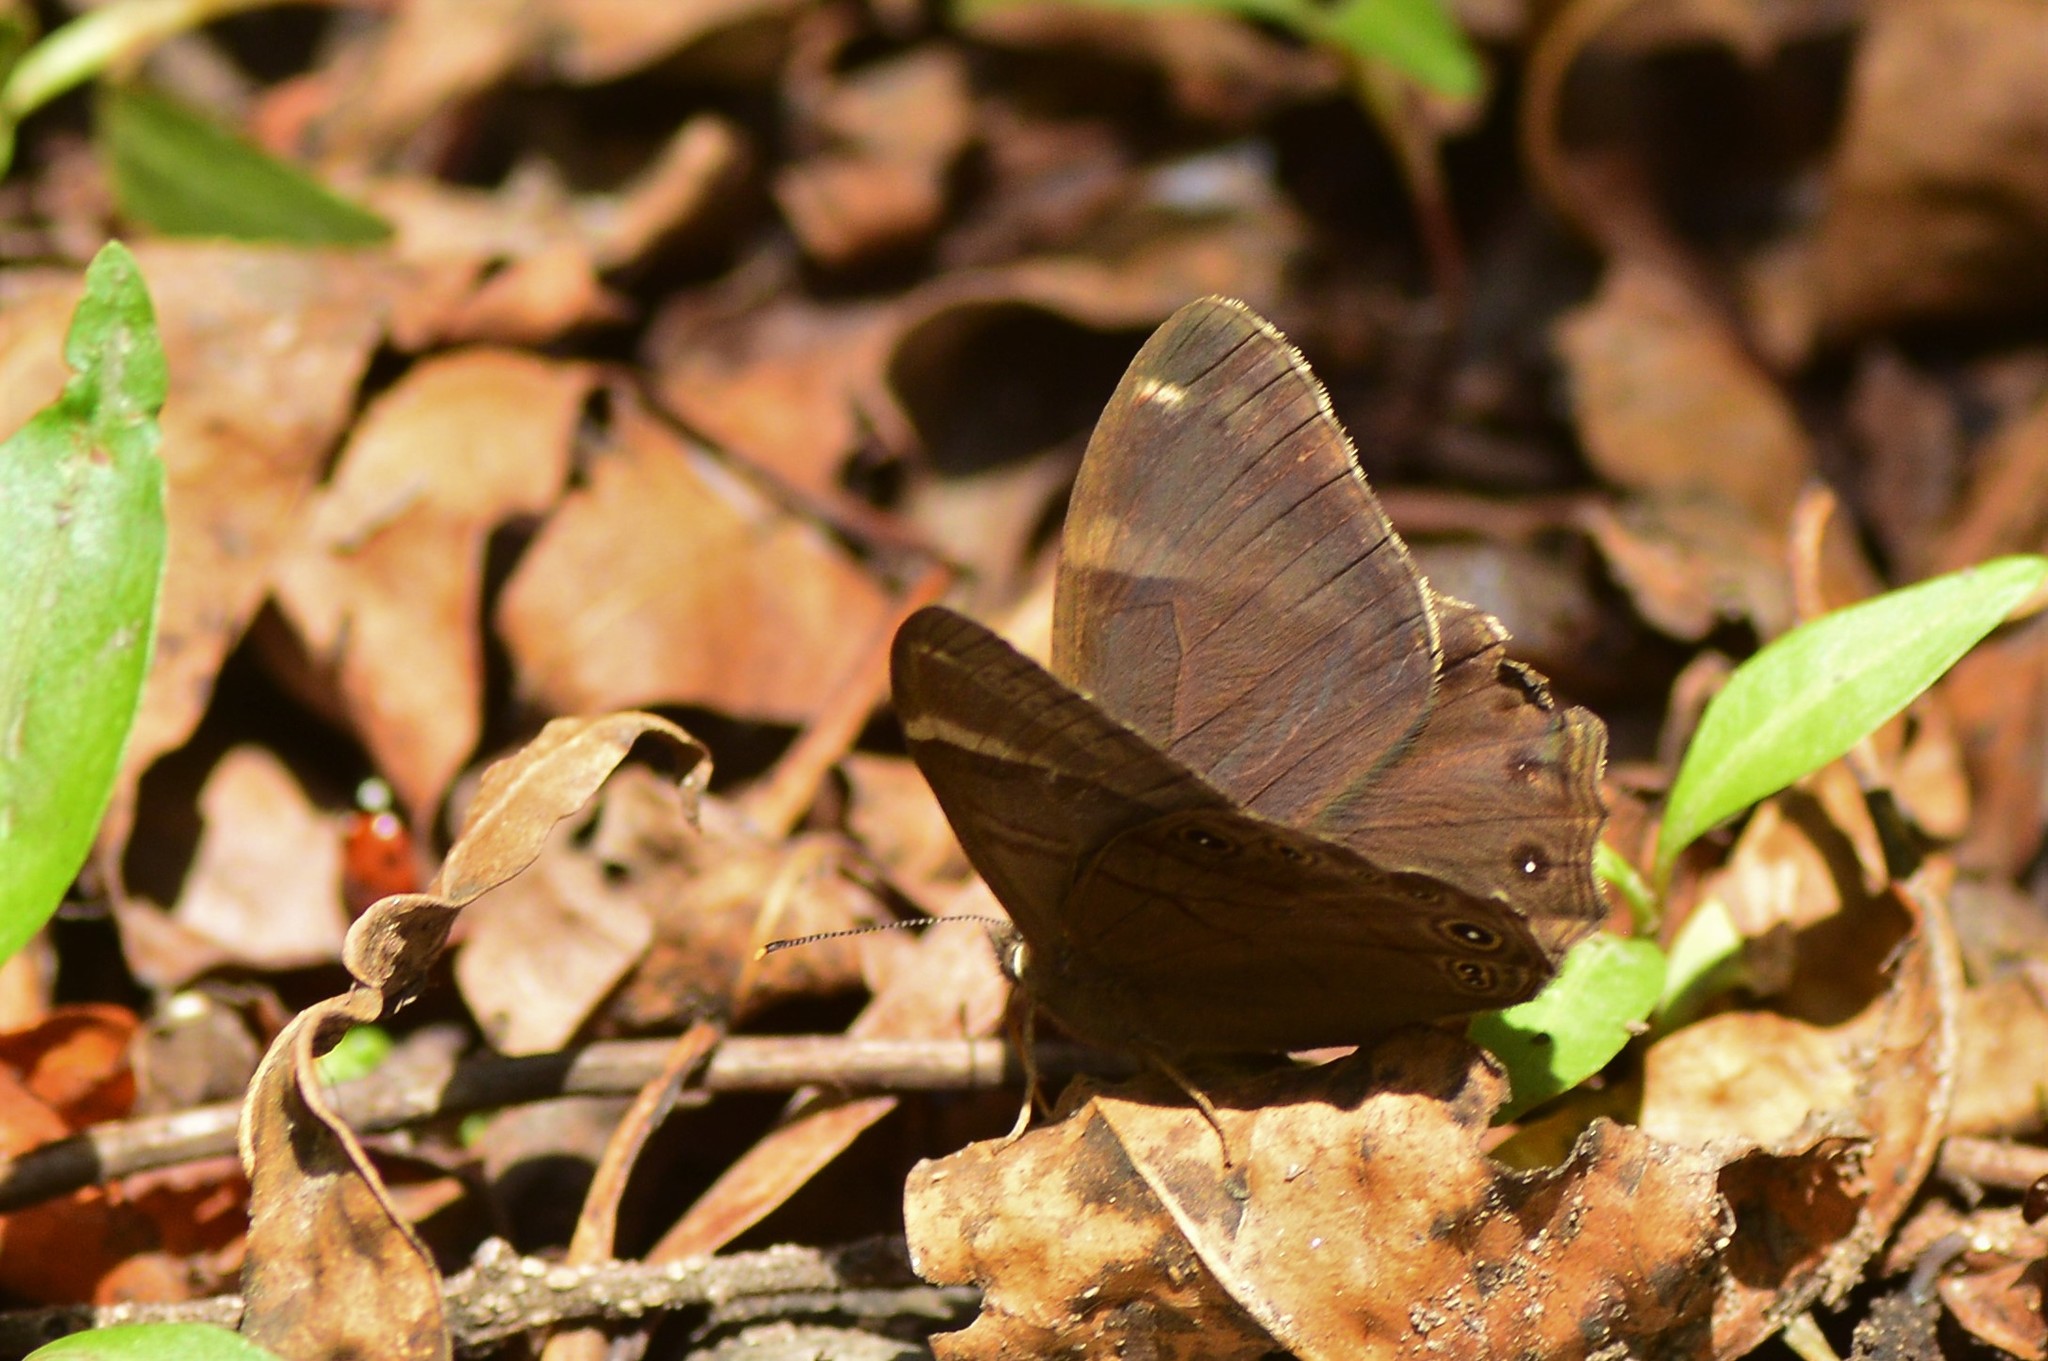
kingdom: Animalia
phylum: Arthropoda
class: Insecta
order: Lepidoptera
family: Nymphalidae
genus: Lethe
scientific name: Lethe
